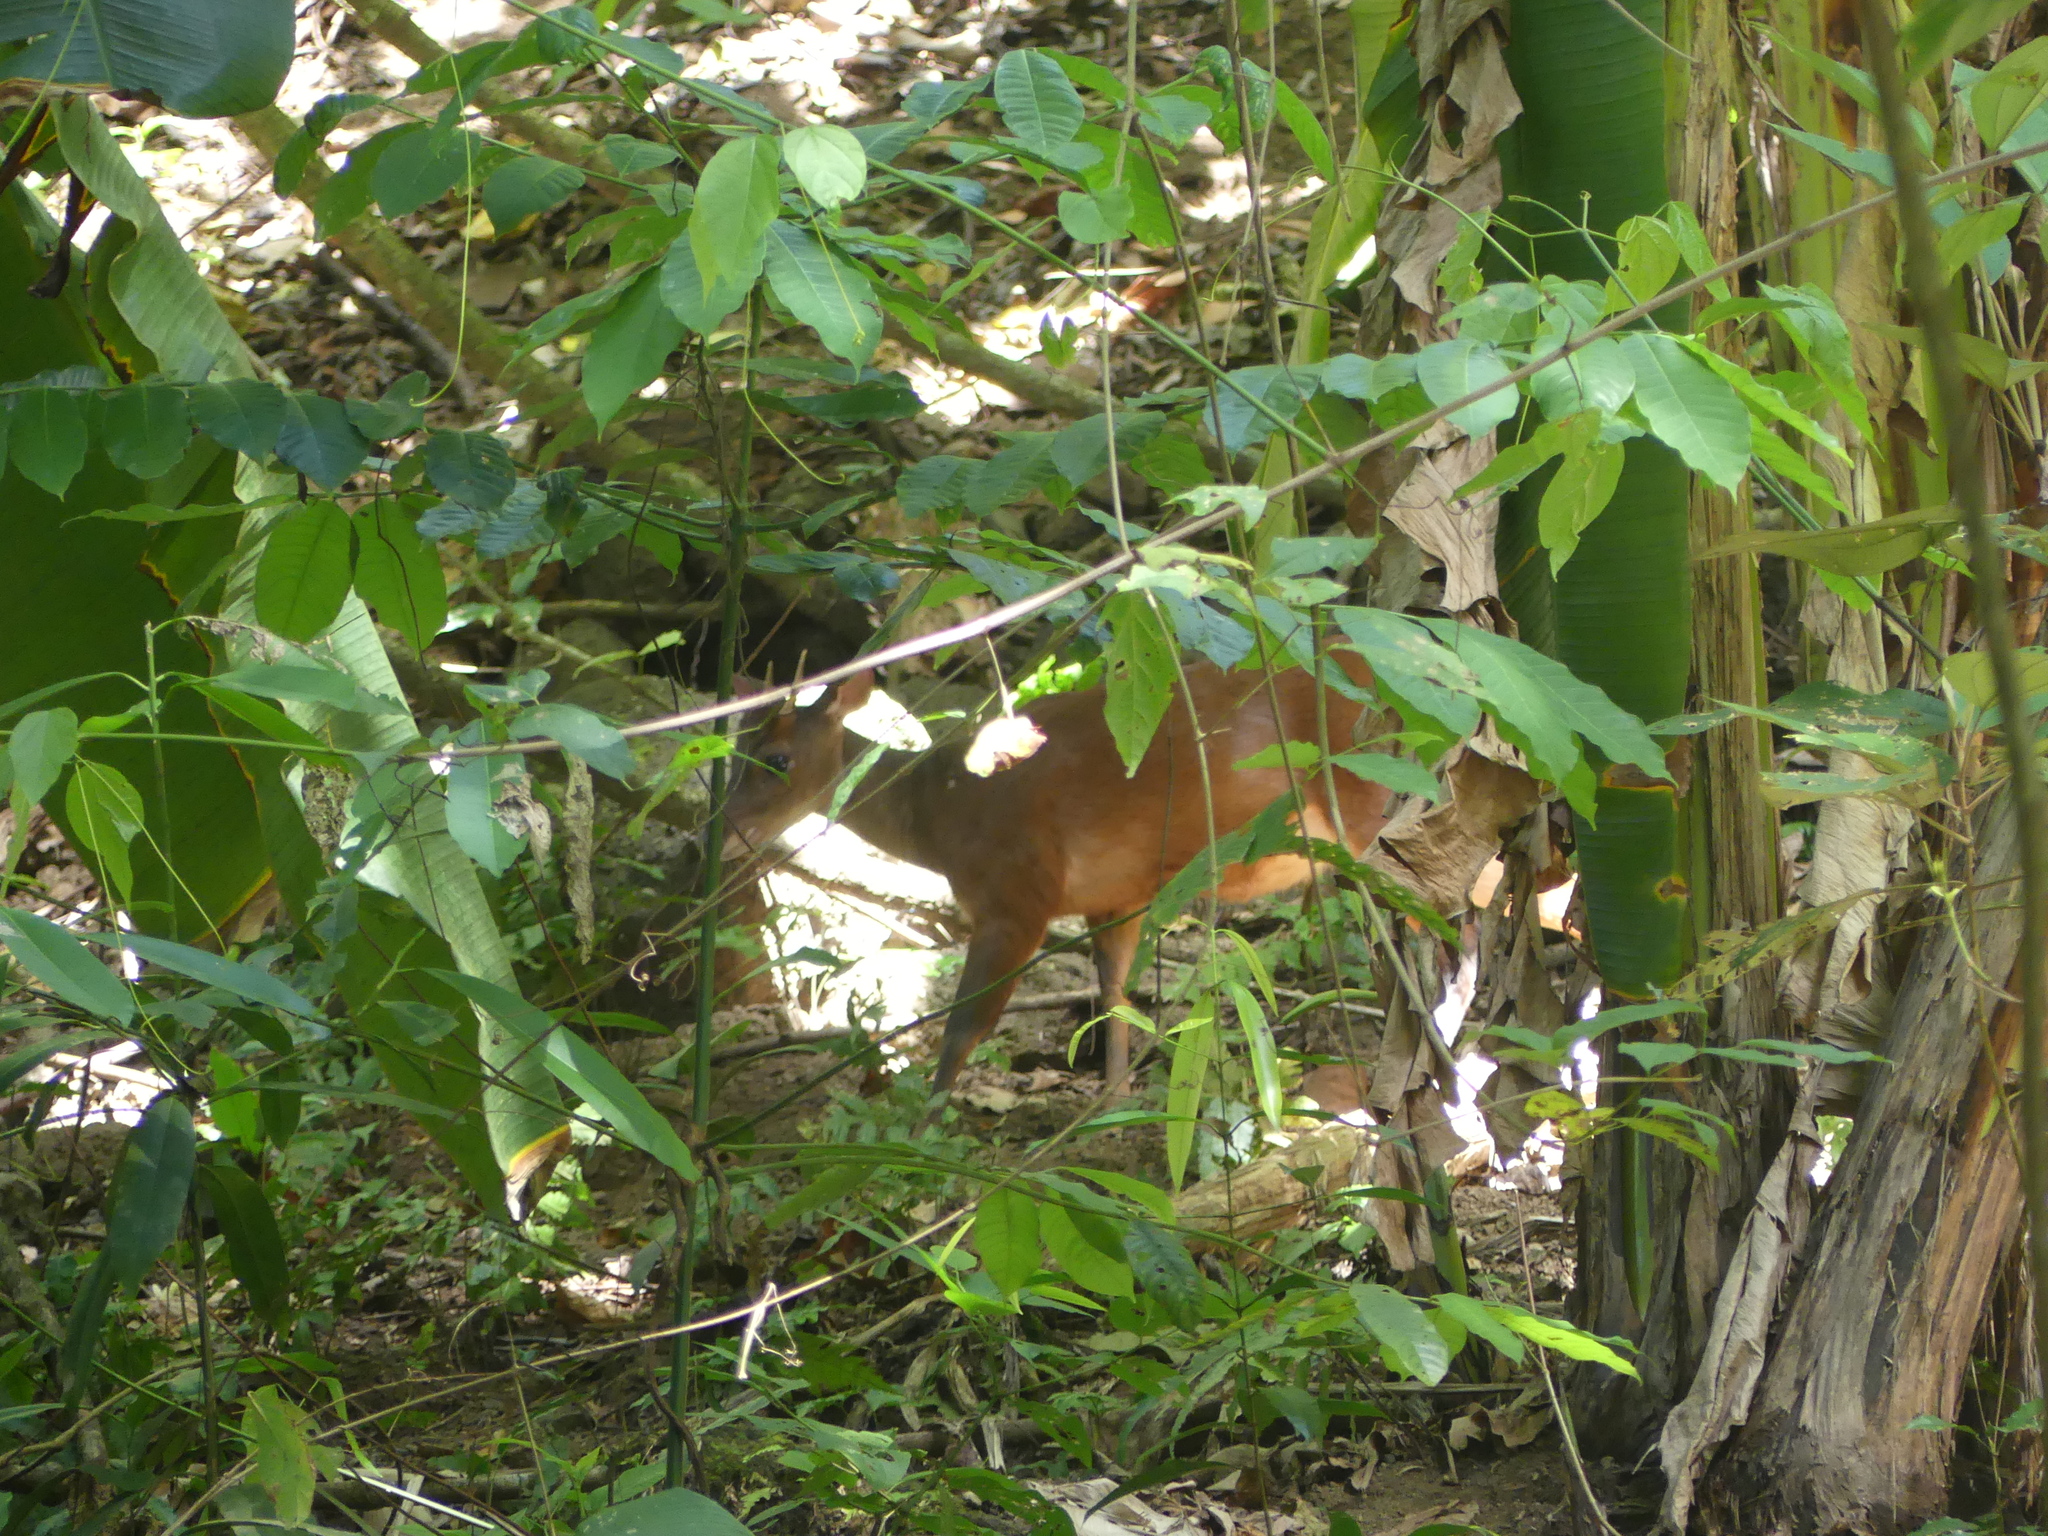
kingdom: Animalia
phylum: Chordata
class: Mammalia
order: Artiodactyla
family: Cervidae
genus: Mazama
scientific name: Mazama temama
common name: Central american red brocket
